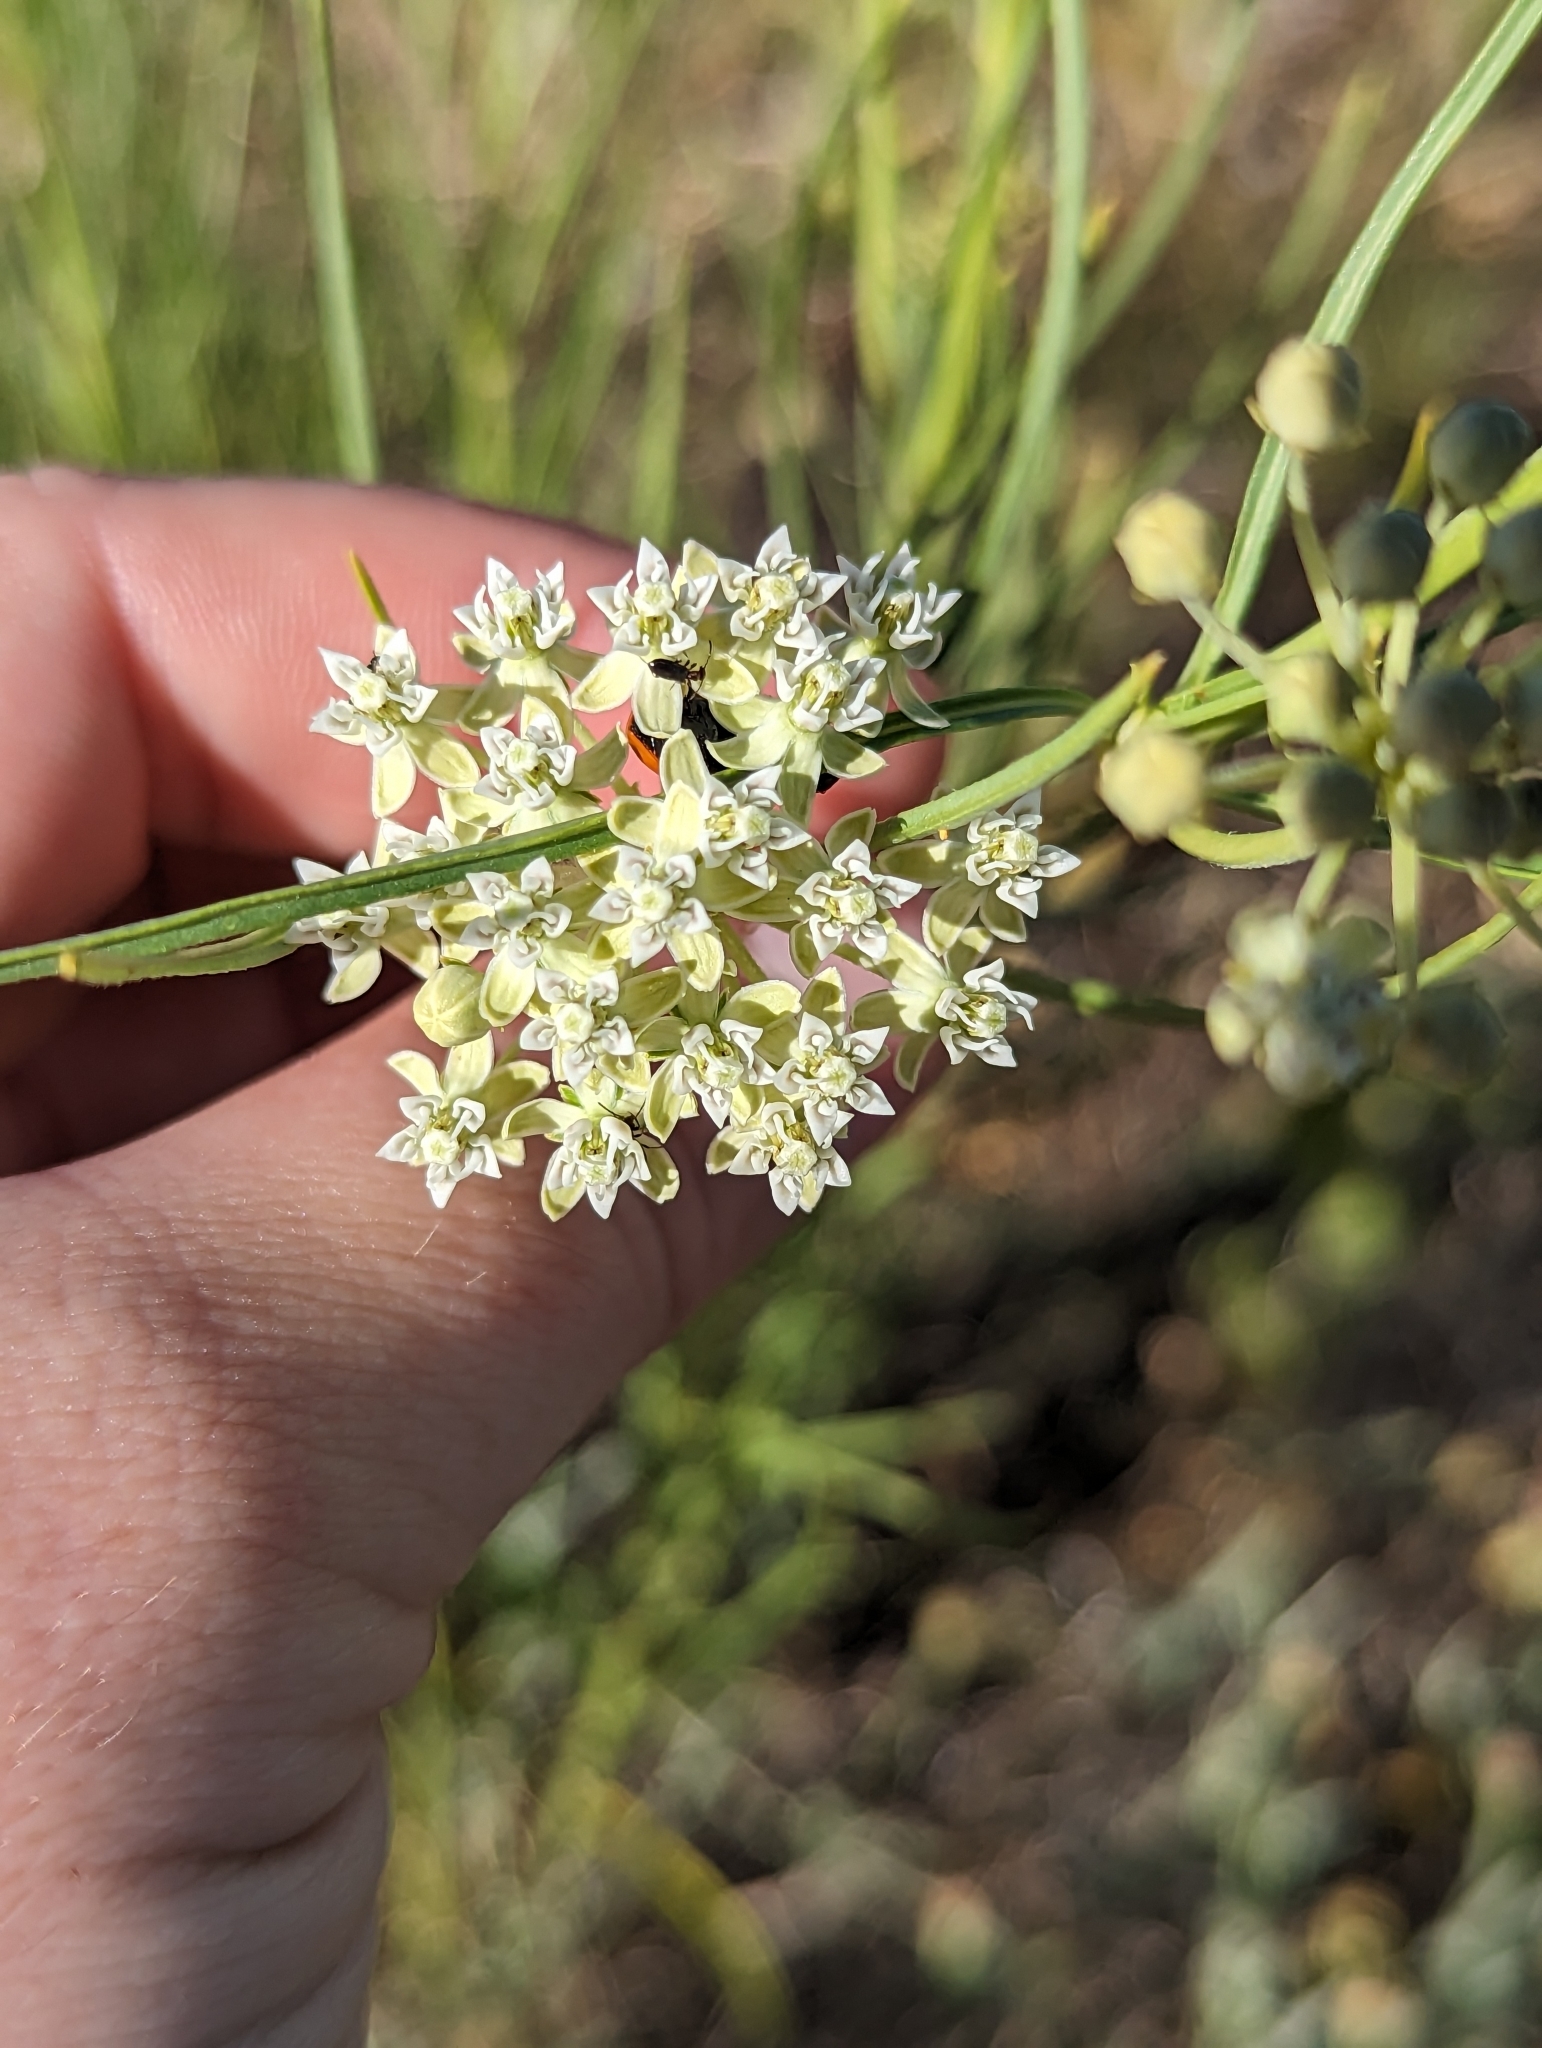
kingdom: Plantae
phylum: Tracheophyta
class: Magnoliopsida
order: Gentianales
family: Apocynaceae
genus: Asclepias
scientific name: Asclepias subverticillata
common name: Horsetail milkweed
